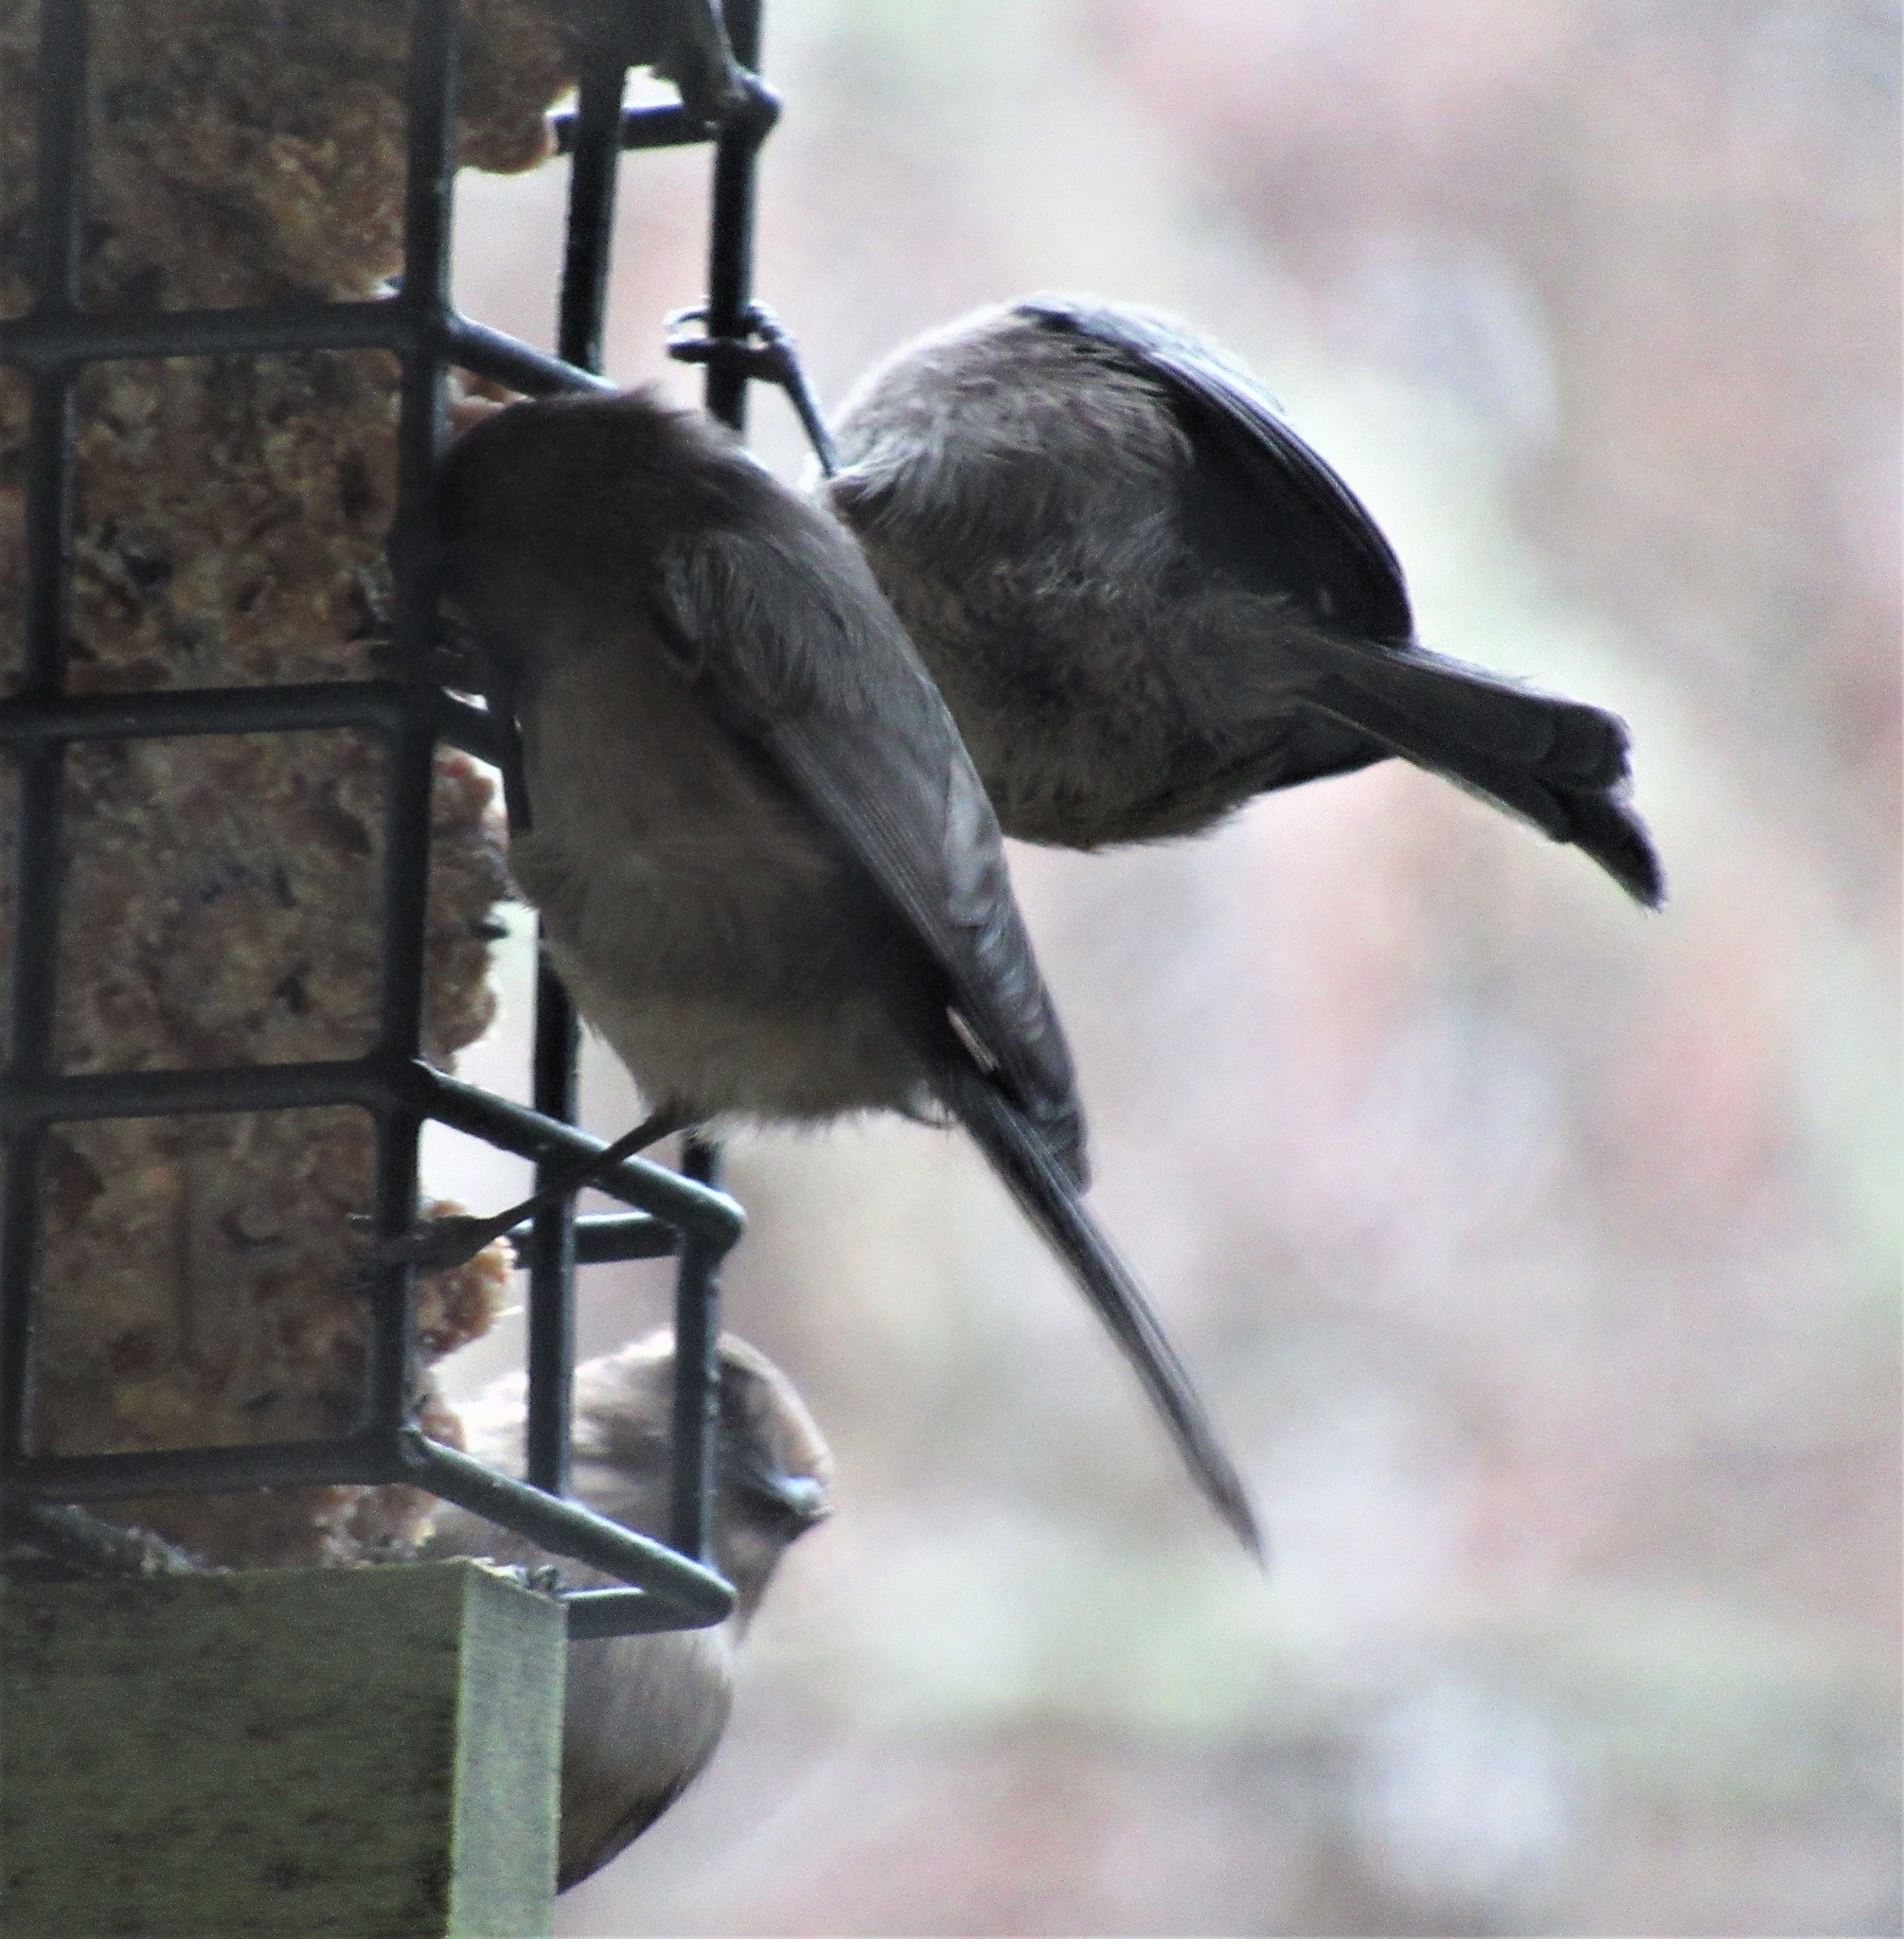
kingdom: Animalia
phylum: Chordata
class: Aves
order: Passeriformes
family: Aegithalidae
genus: Psaltriparus
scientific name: Psaltriparus minimus
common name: American bushtit
